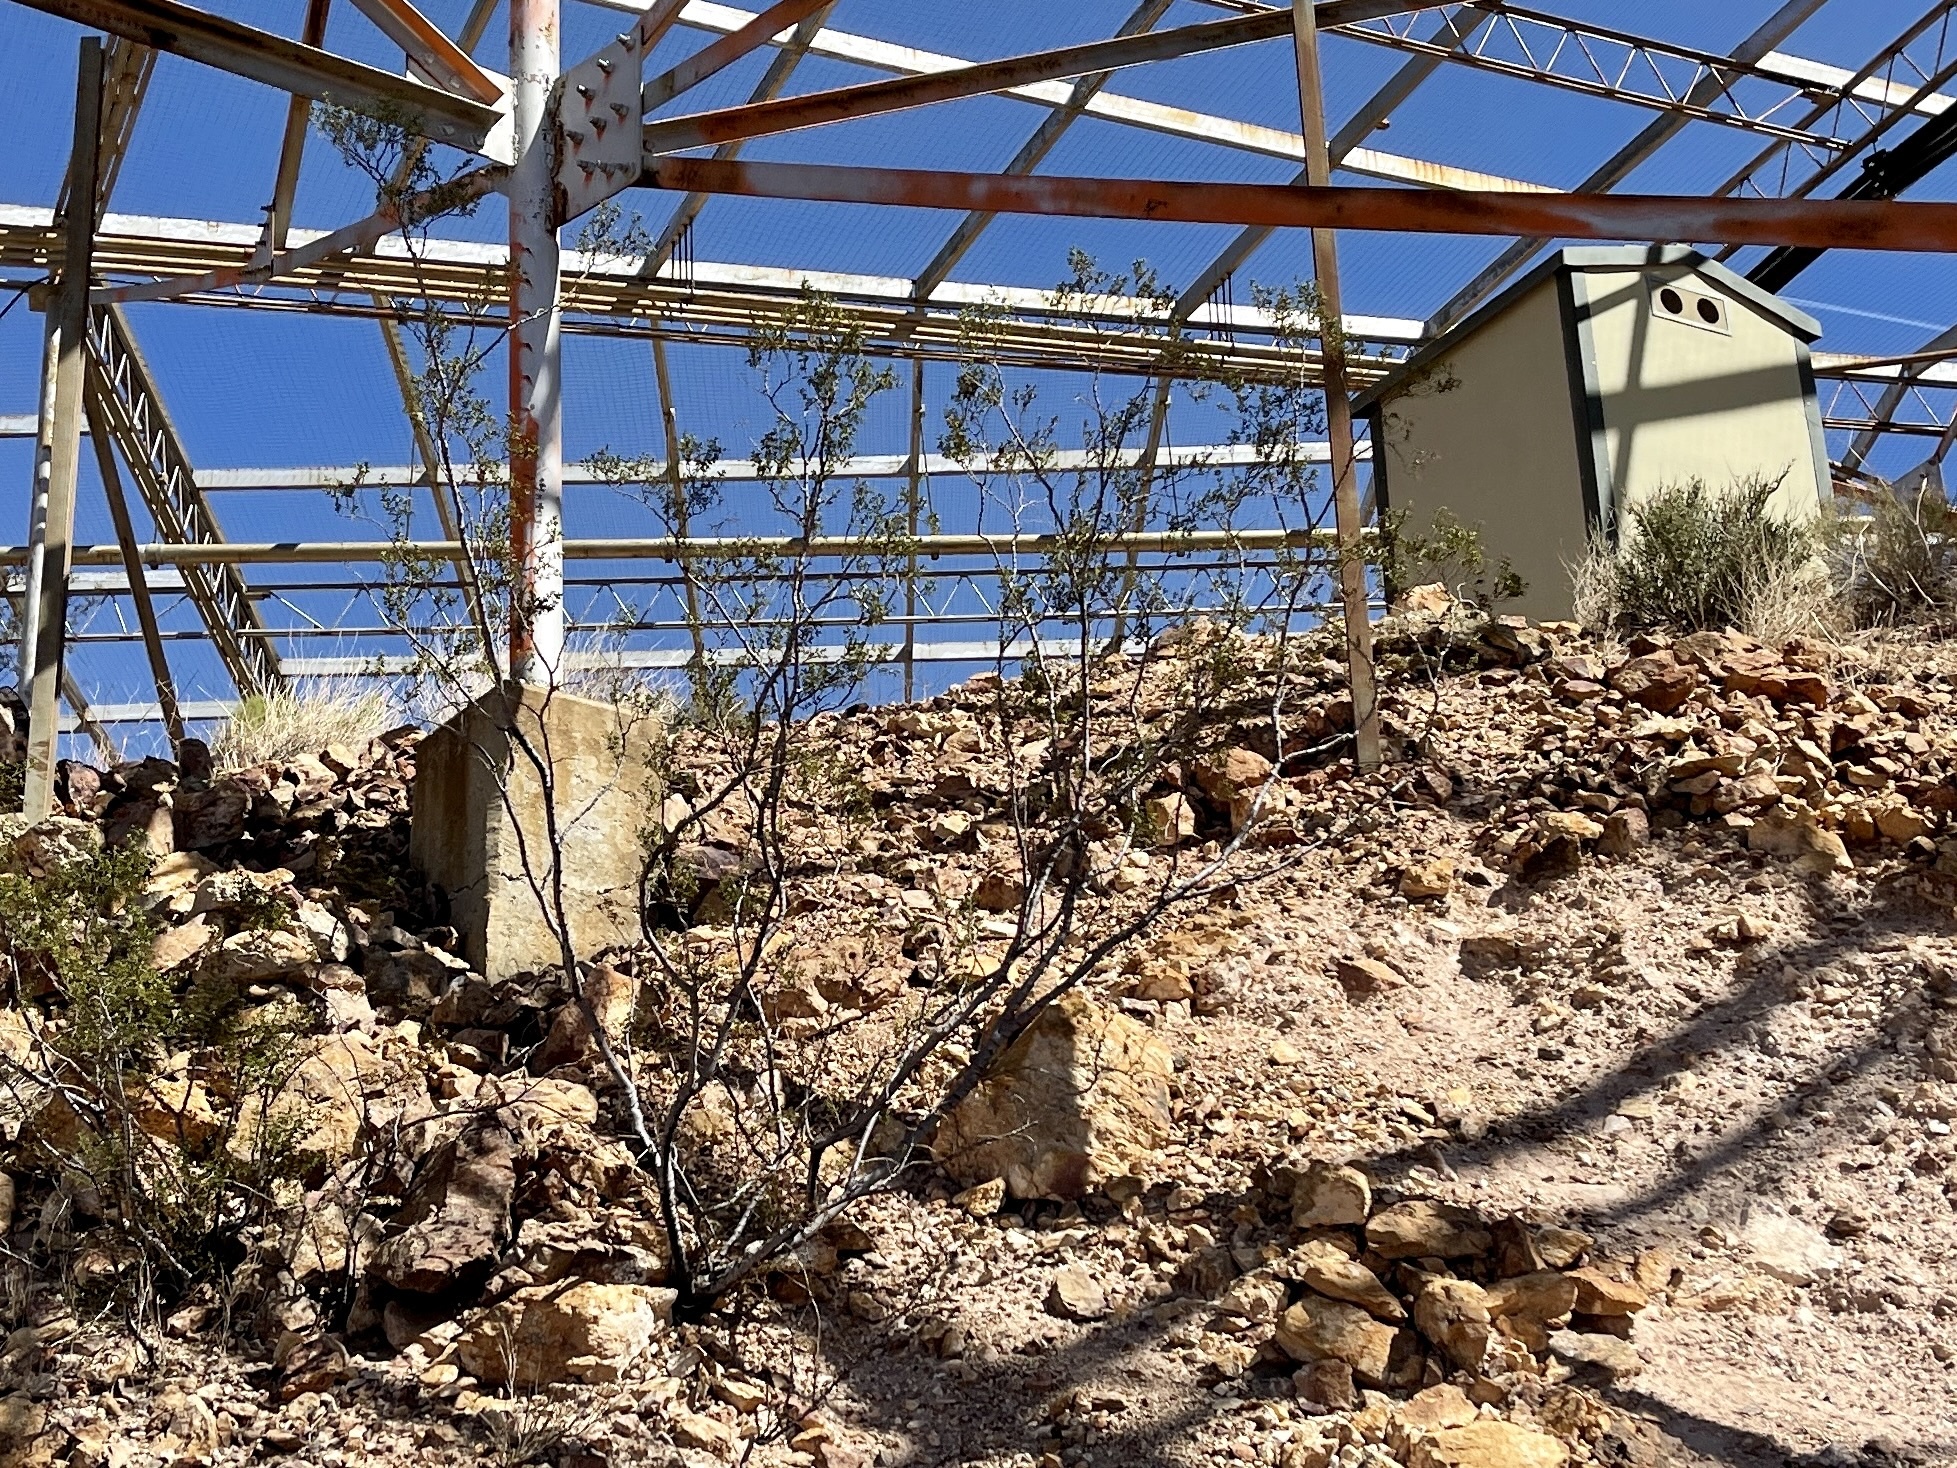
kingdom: Plantae
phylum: Tracheophyta
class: Magnoliopsida
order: Zygophyllales
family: Zygophyllaceae
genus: Larrea
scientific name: Larrea tridentata
